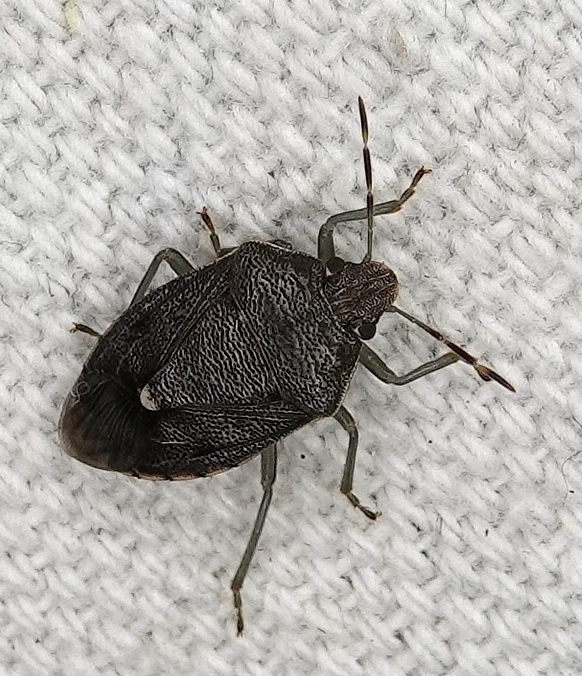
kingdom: Animalia
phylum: Arthropoda
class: Insecta
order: Hemiptera
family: Pentatomidae
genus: Banasa
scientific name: Banasa sordida
